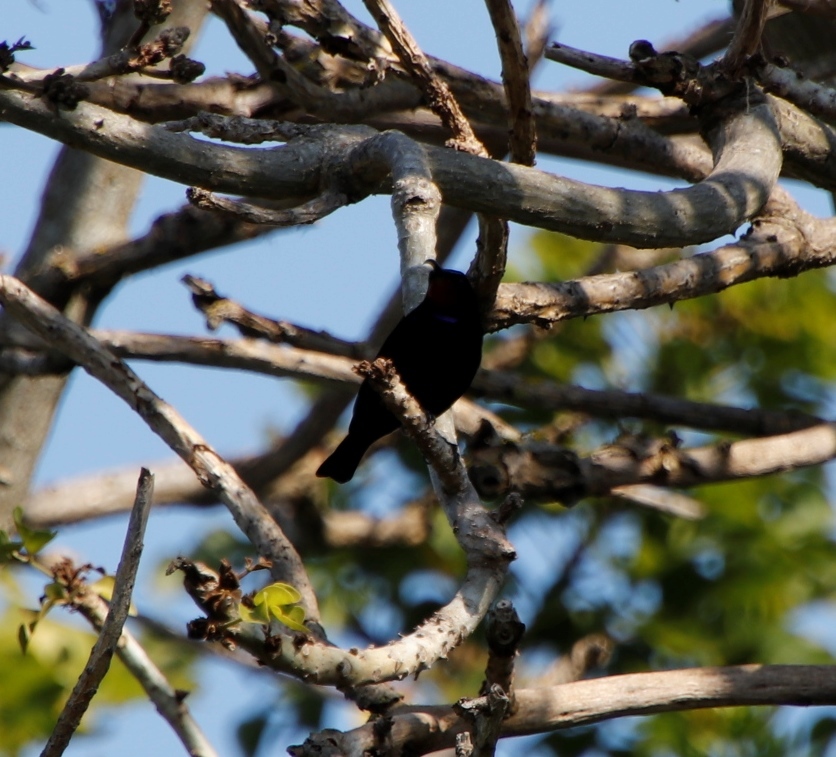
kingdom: Animalia
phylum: Chordata
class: Aves
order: Passeriformes
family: Nectariniidae
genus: Chalcomitra
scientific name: Chalcomitra amethystina
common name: Amethyst sunbird
